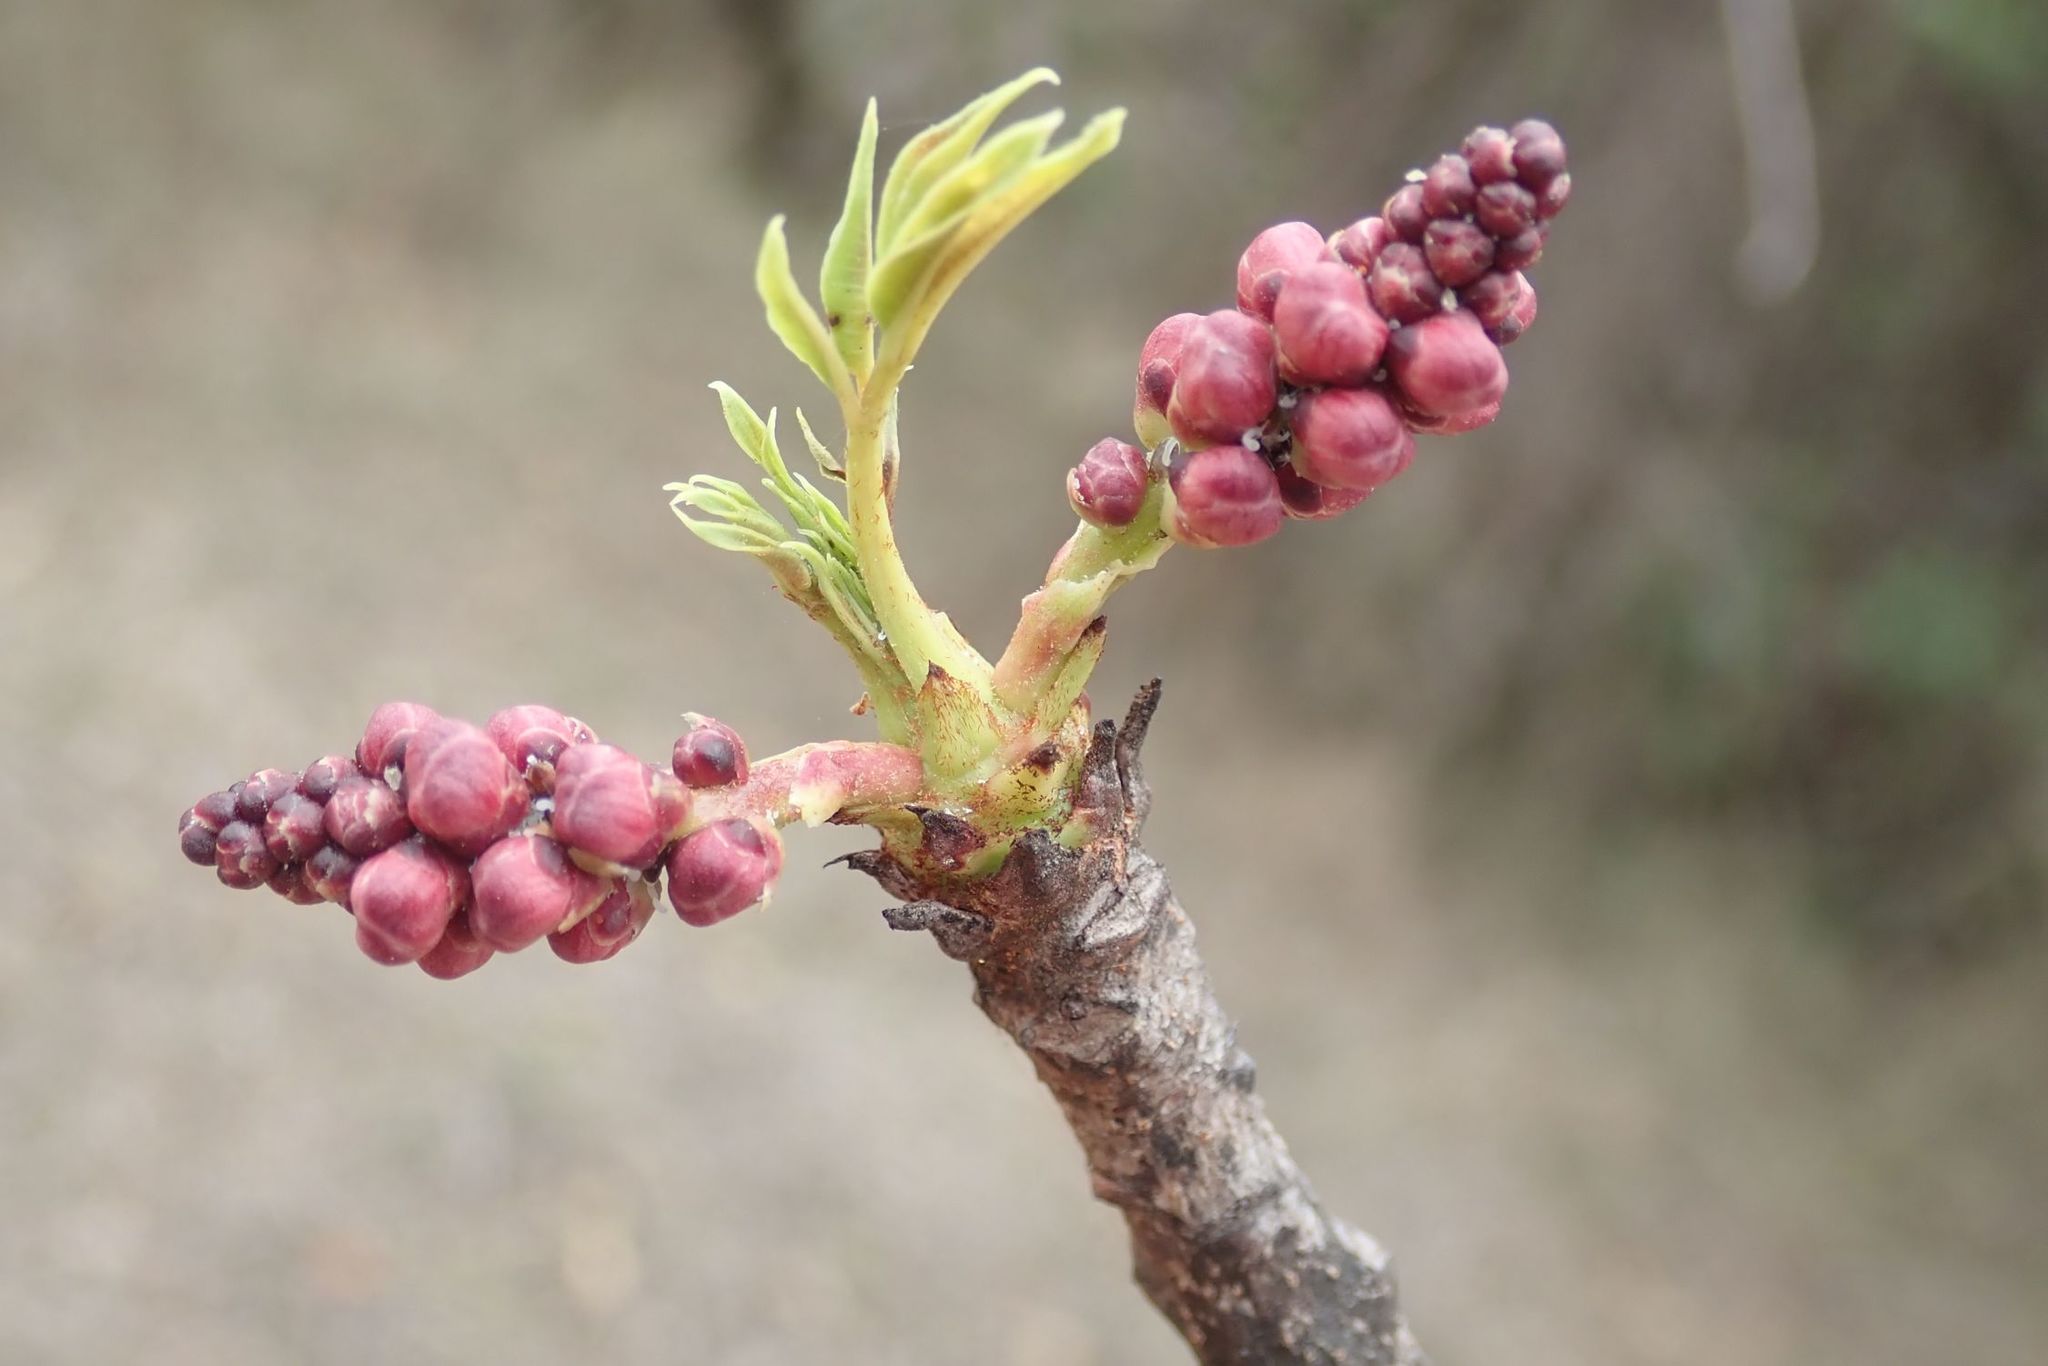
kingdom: Plantae
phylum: Tracheophyta
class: Magnoliopsida
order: Sapindales
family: Anacardiaceae
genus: Sclerocarya
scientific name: Sclerocarya birrea
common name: Marula
